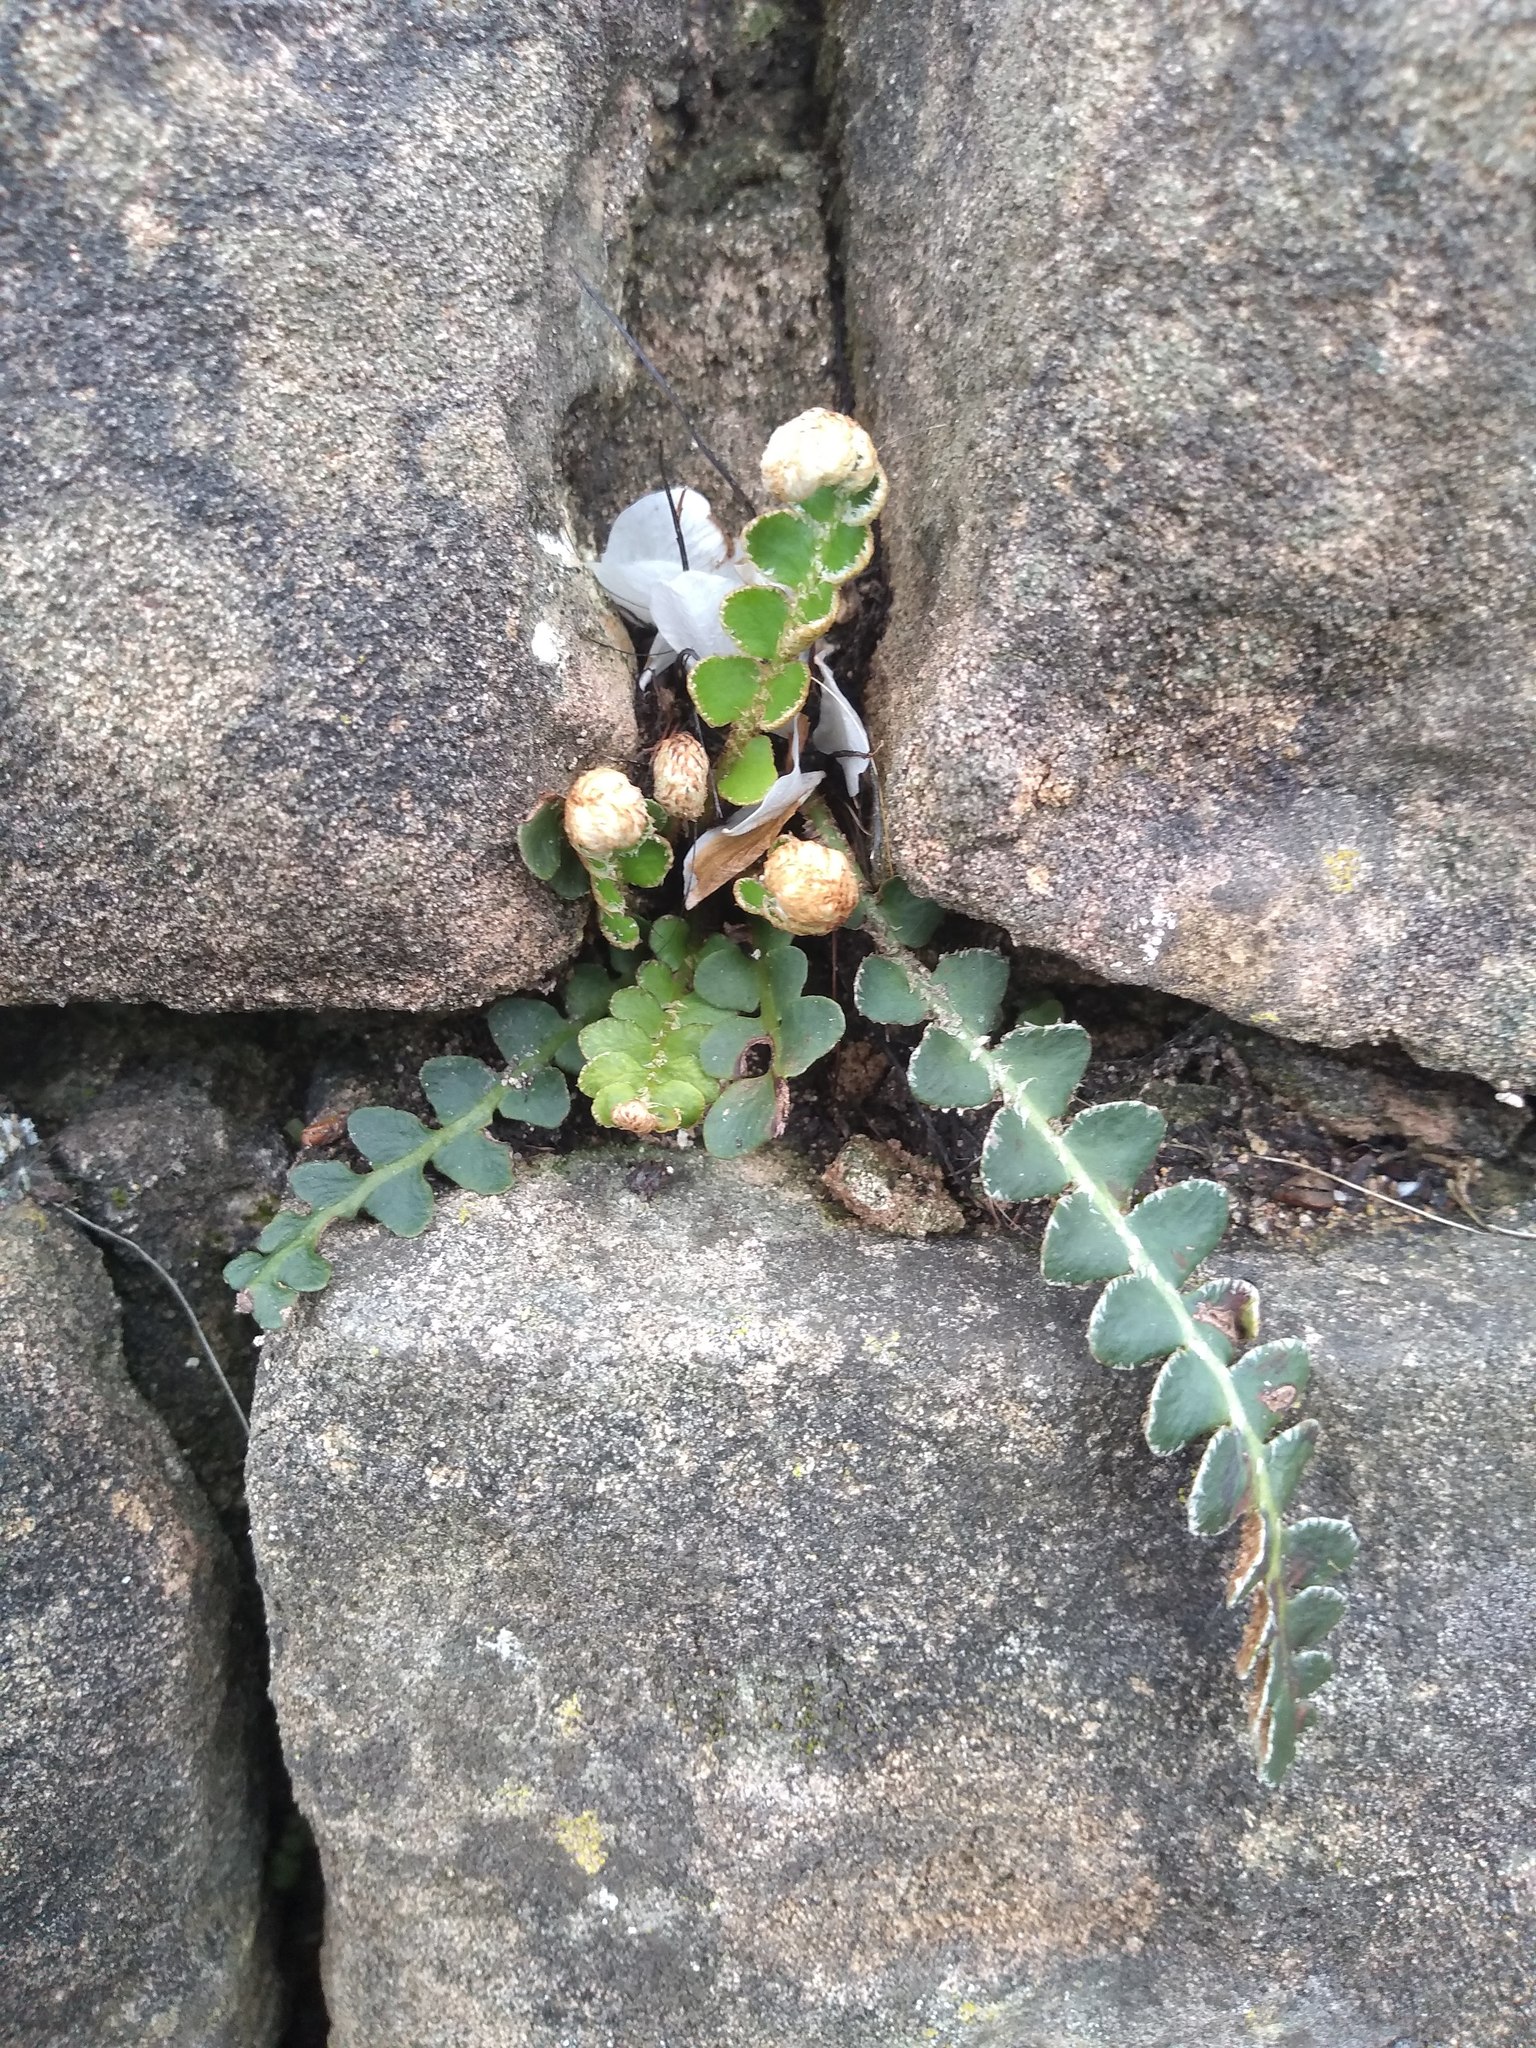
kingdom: Plantae
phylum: Tracheophyta
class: Polypodiopsida
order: Polypodiales
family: Aspleniaceae
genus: Asplenium
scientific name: Asplenium ceterach
